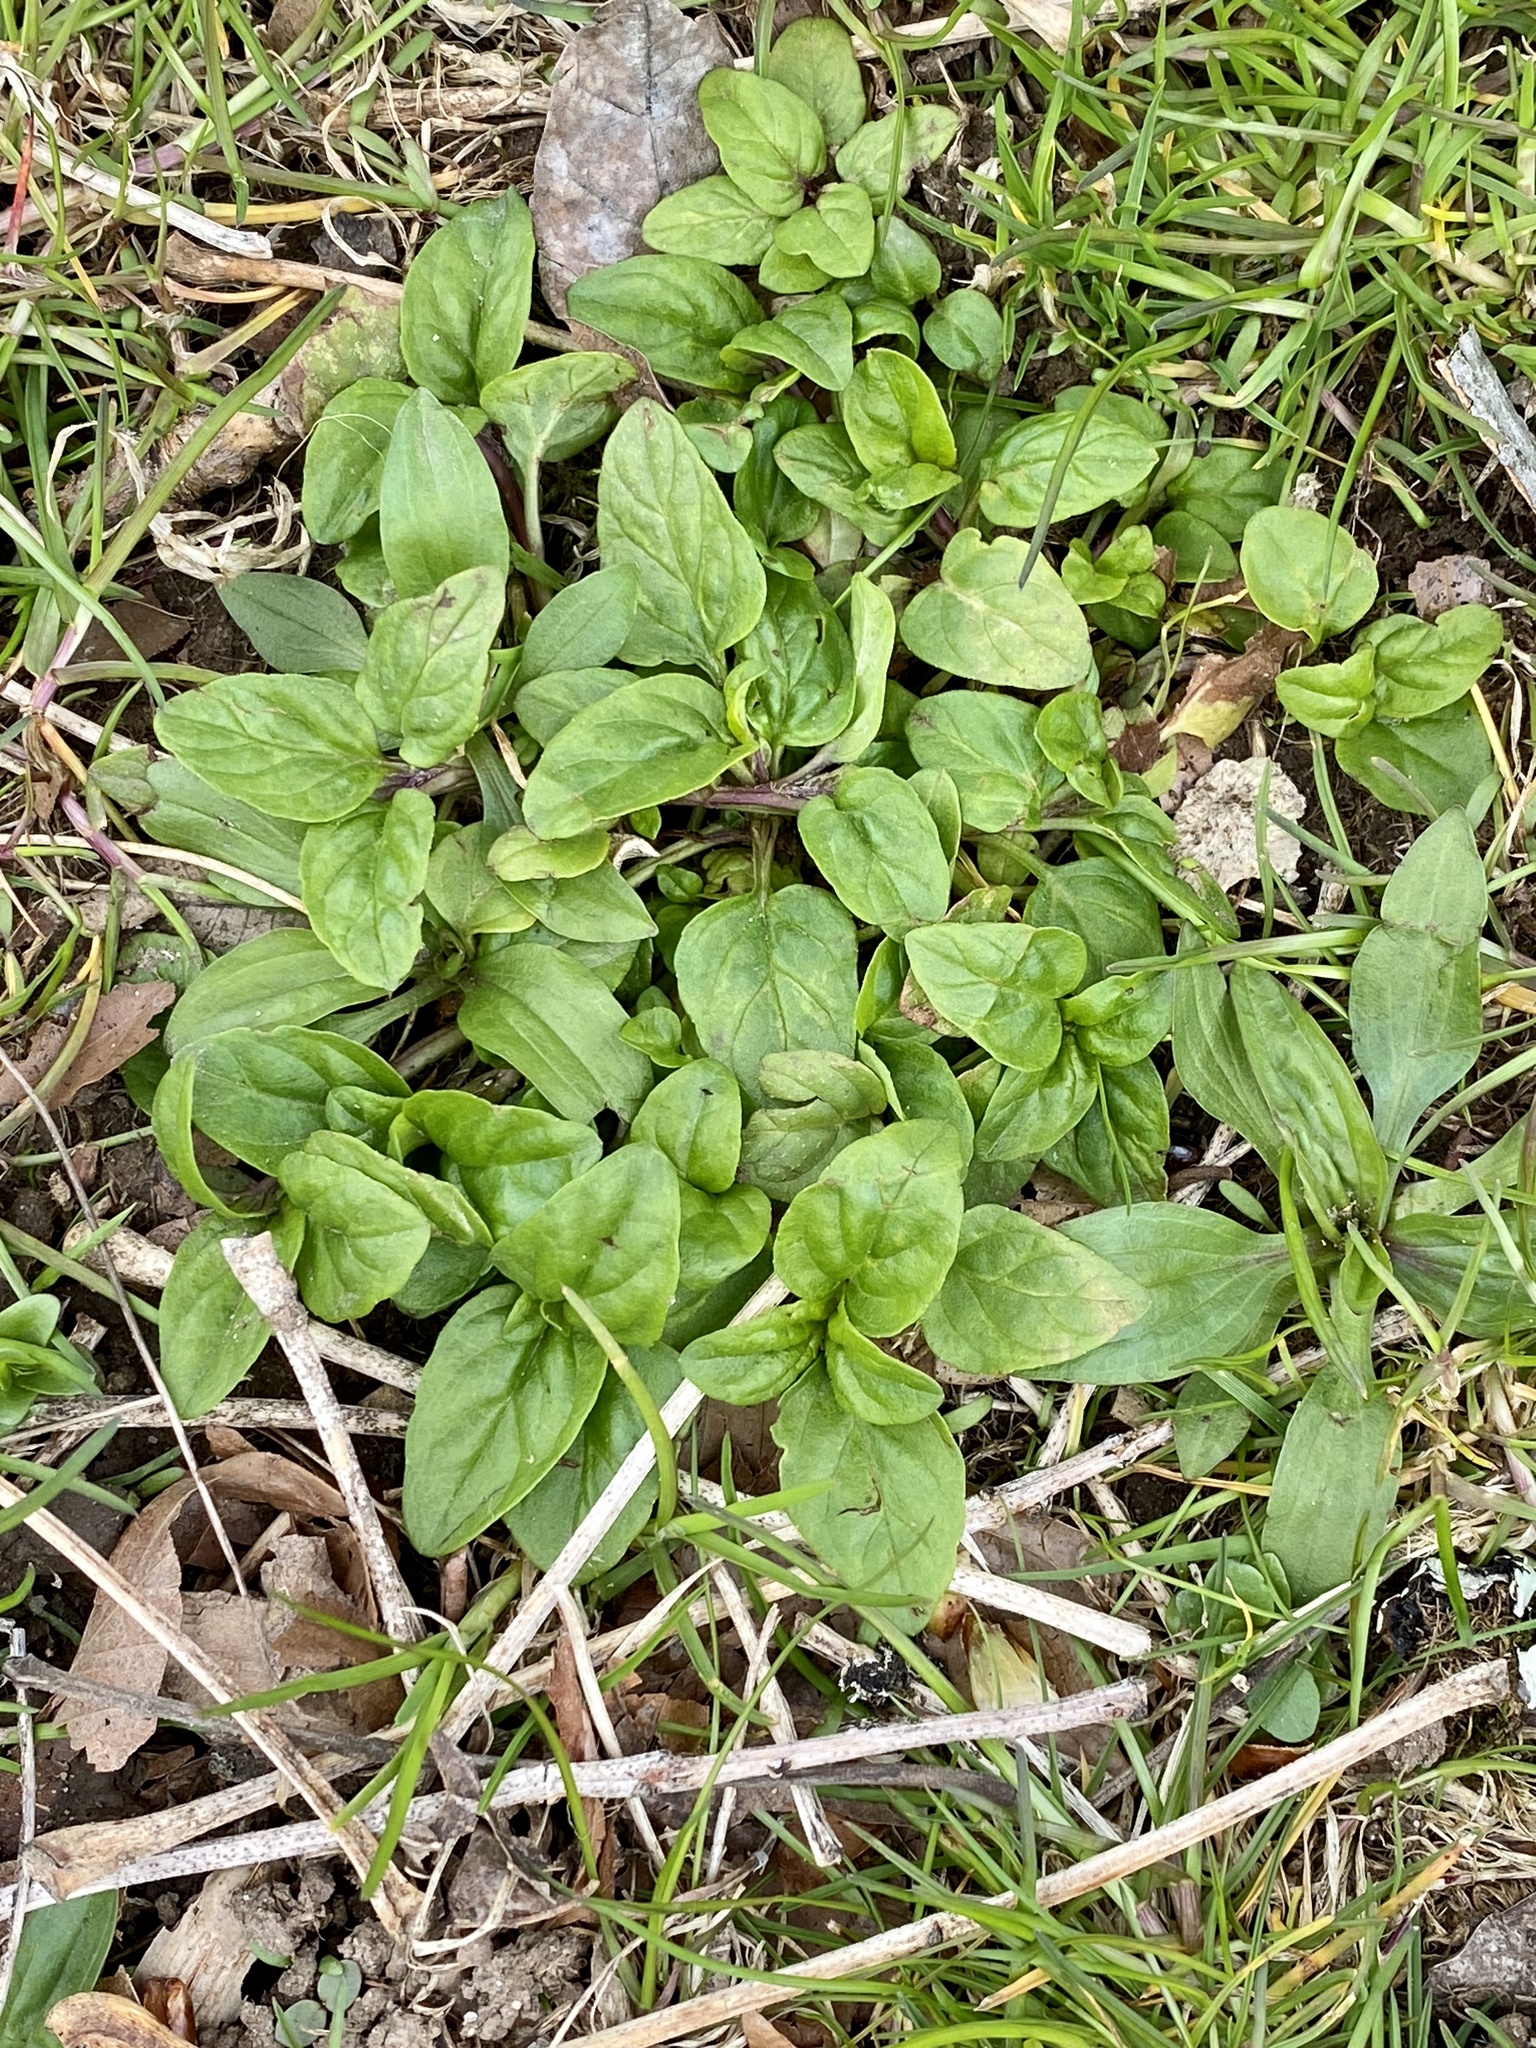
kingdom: Plantae
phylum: Tracheophyta
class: Magnoliopsida
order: Lamiales
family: Lamiaceae
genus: Prunella
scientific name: Prunella vulgaris
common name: Heal-all
